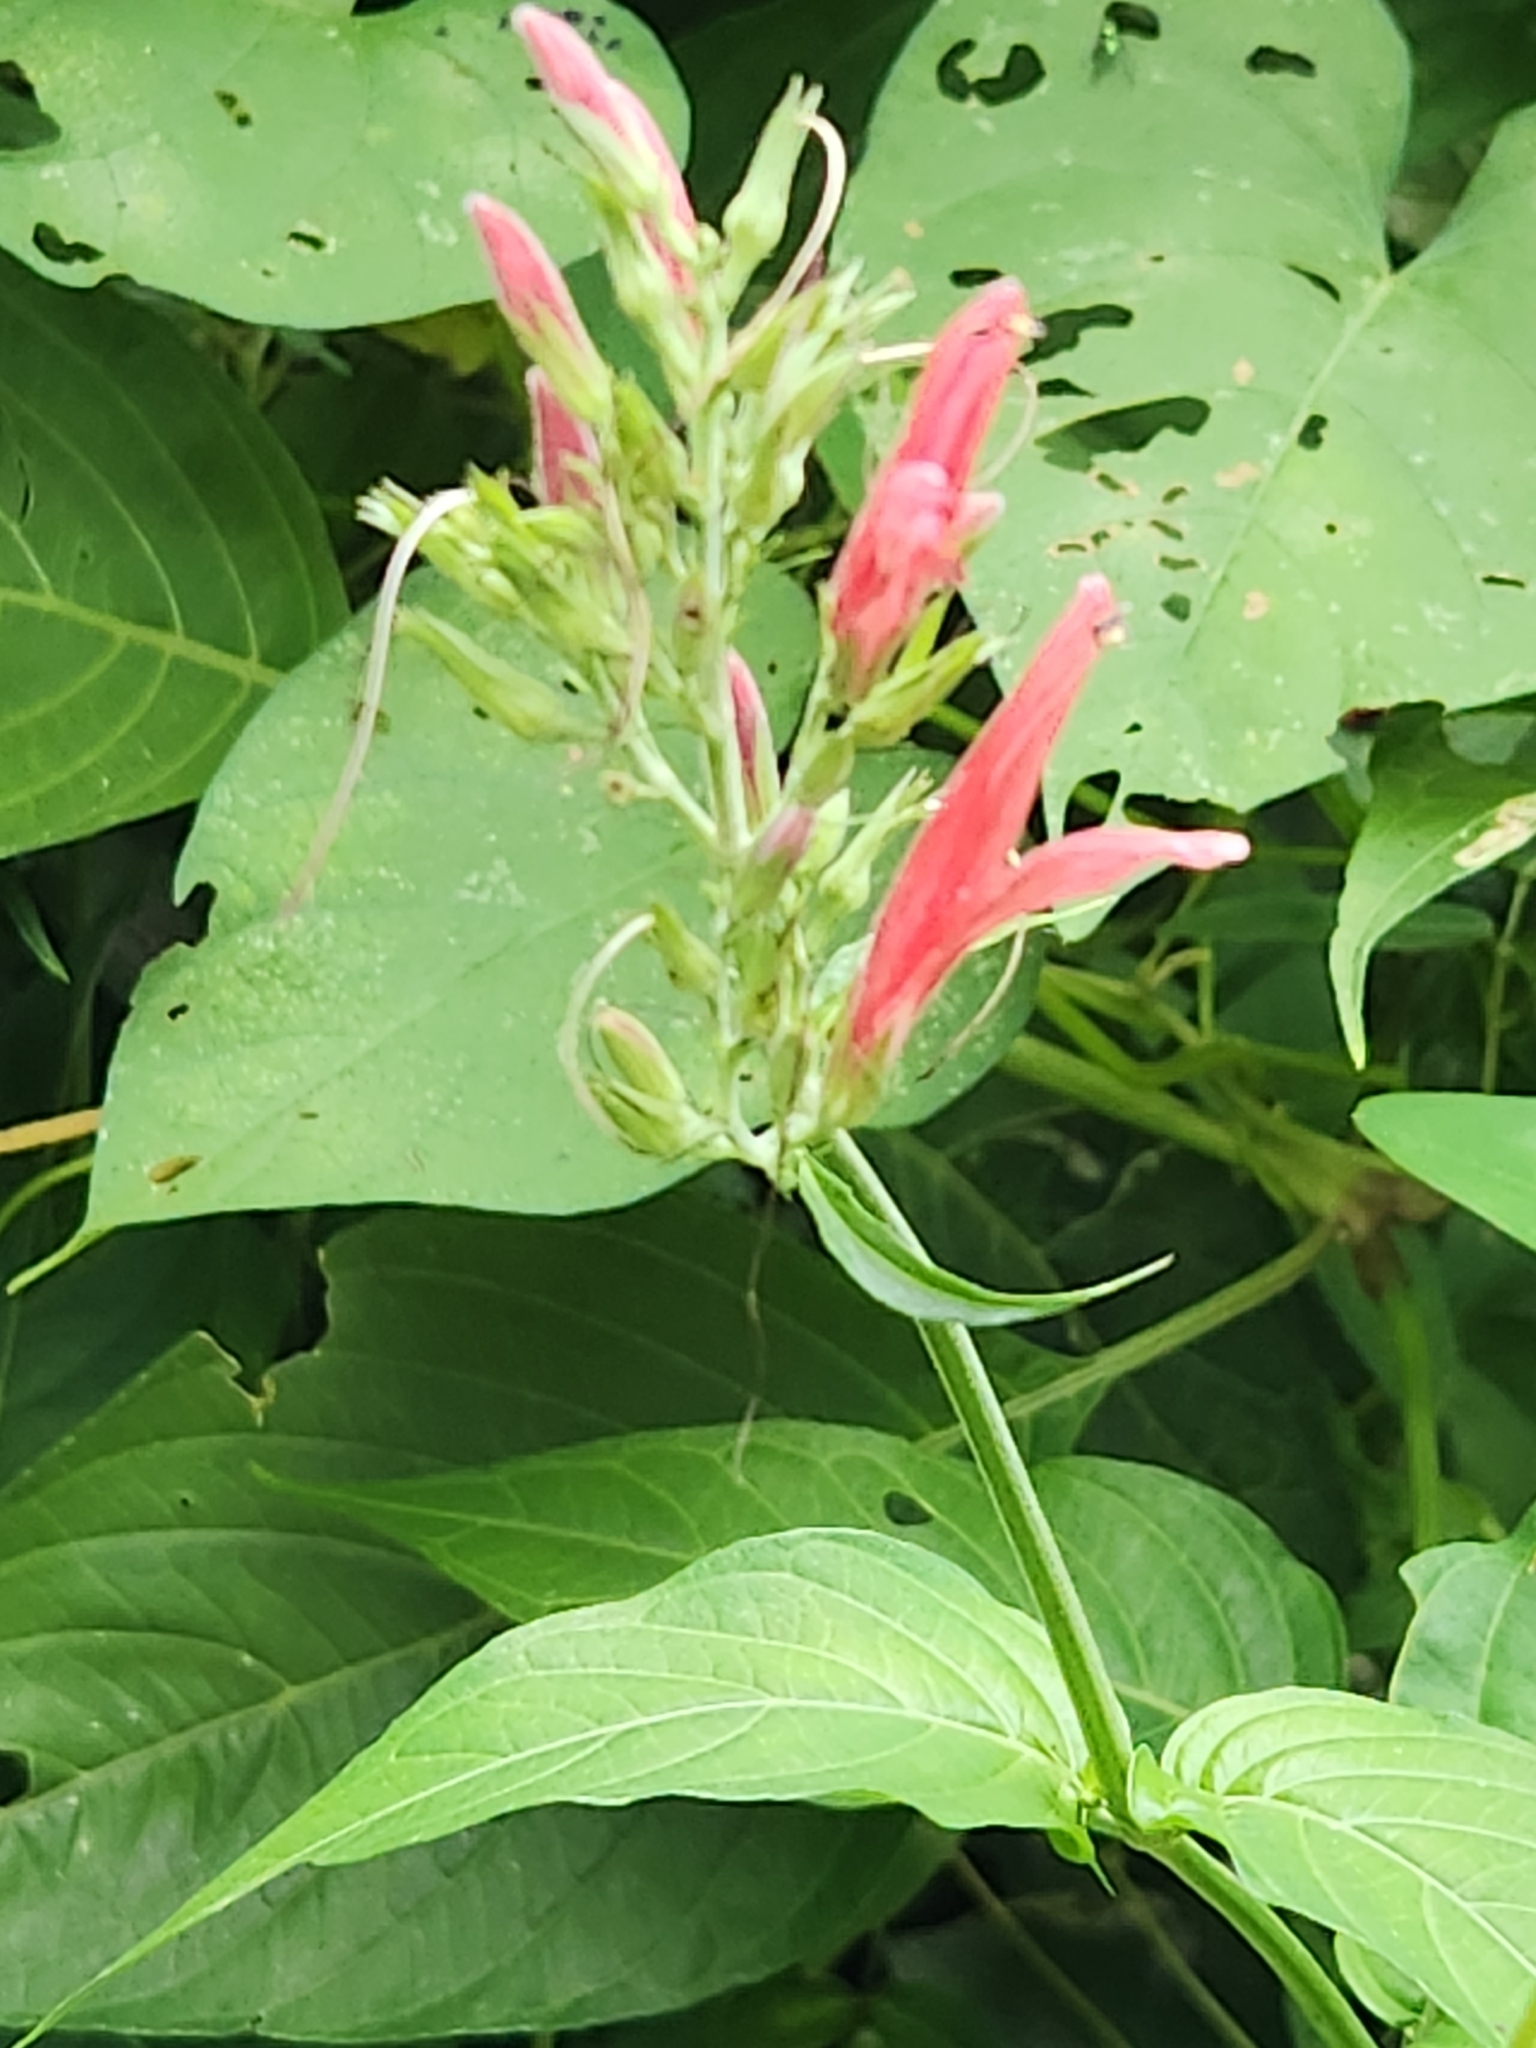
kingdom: Plantae
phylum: Tracheophyta
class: Magnoliopsida
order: Lamiales
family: Acanthaceae
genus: Dianthera
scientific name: Dianthera secunda
